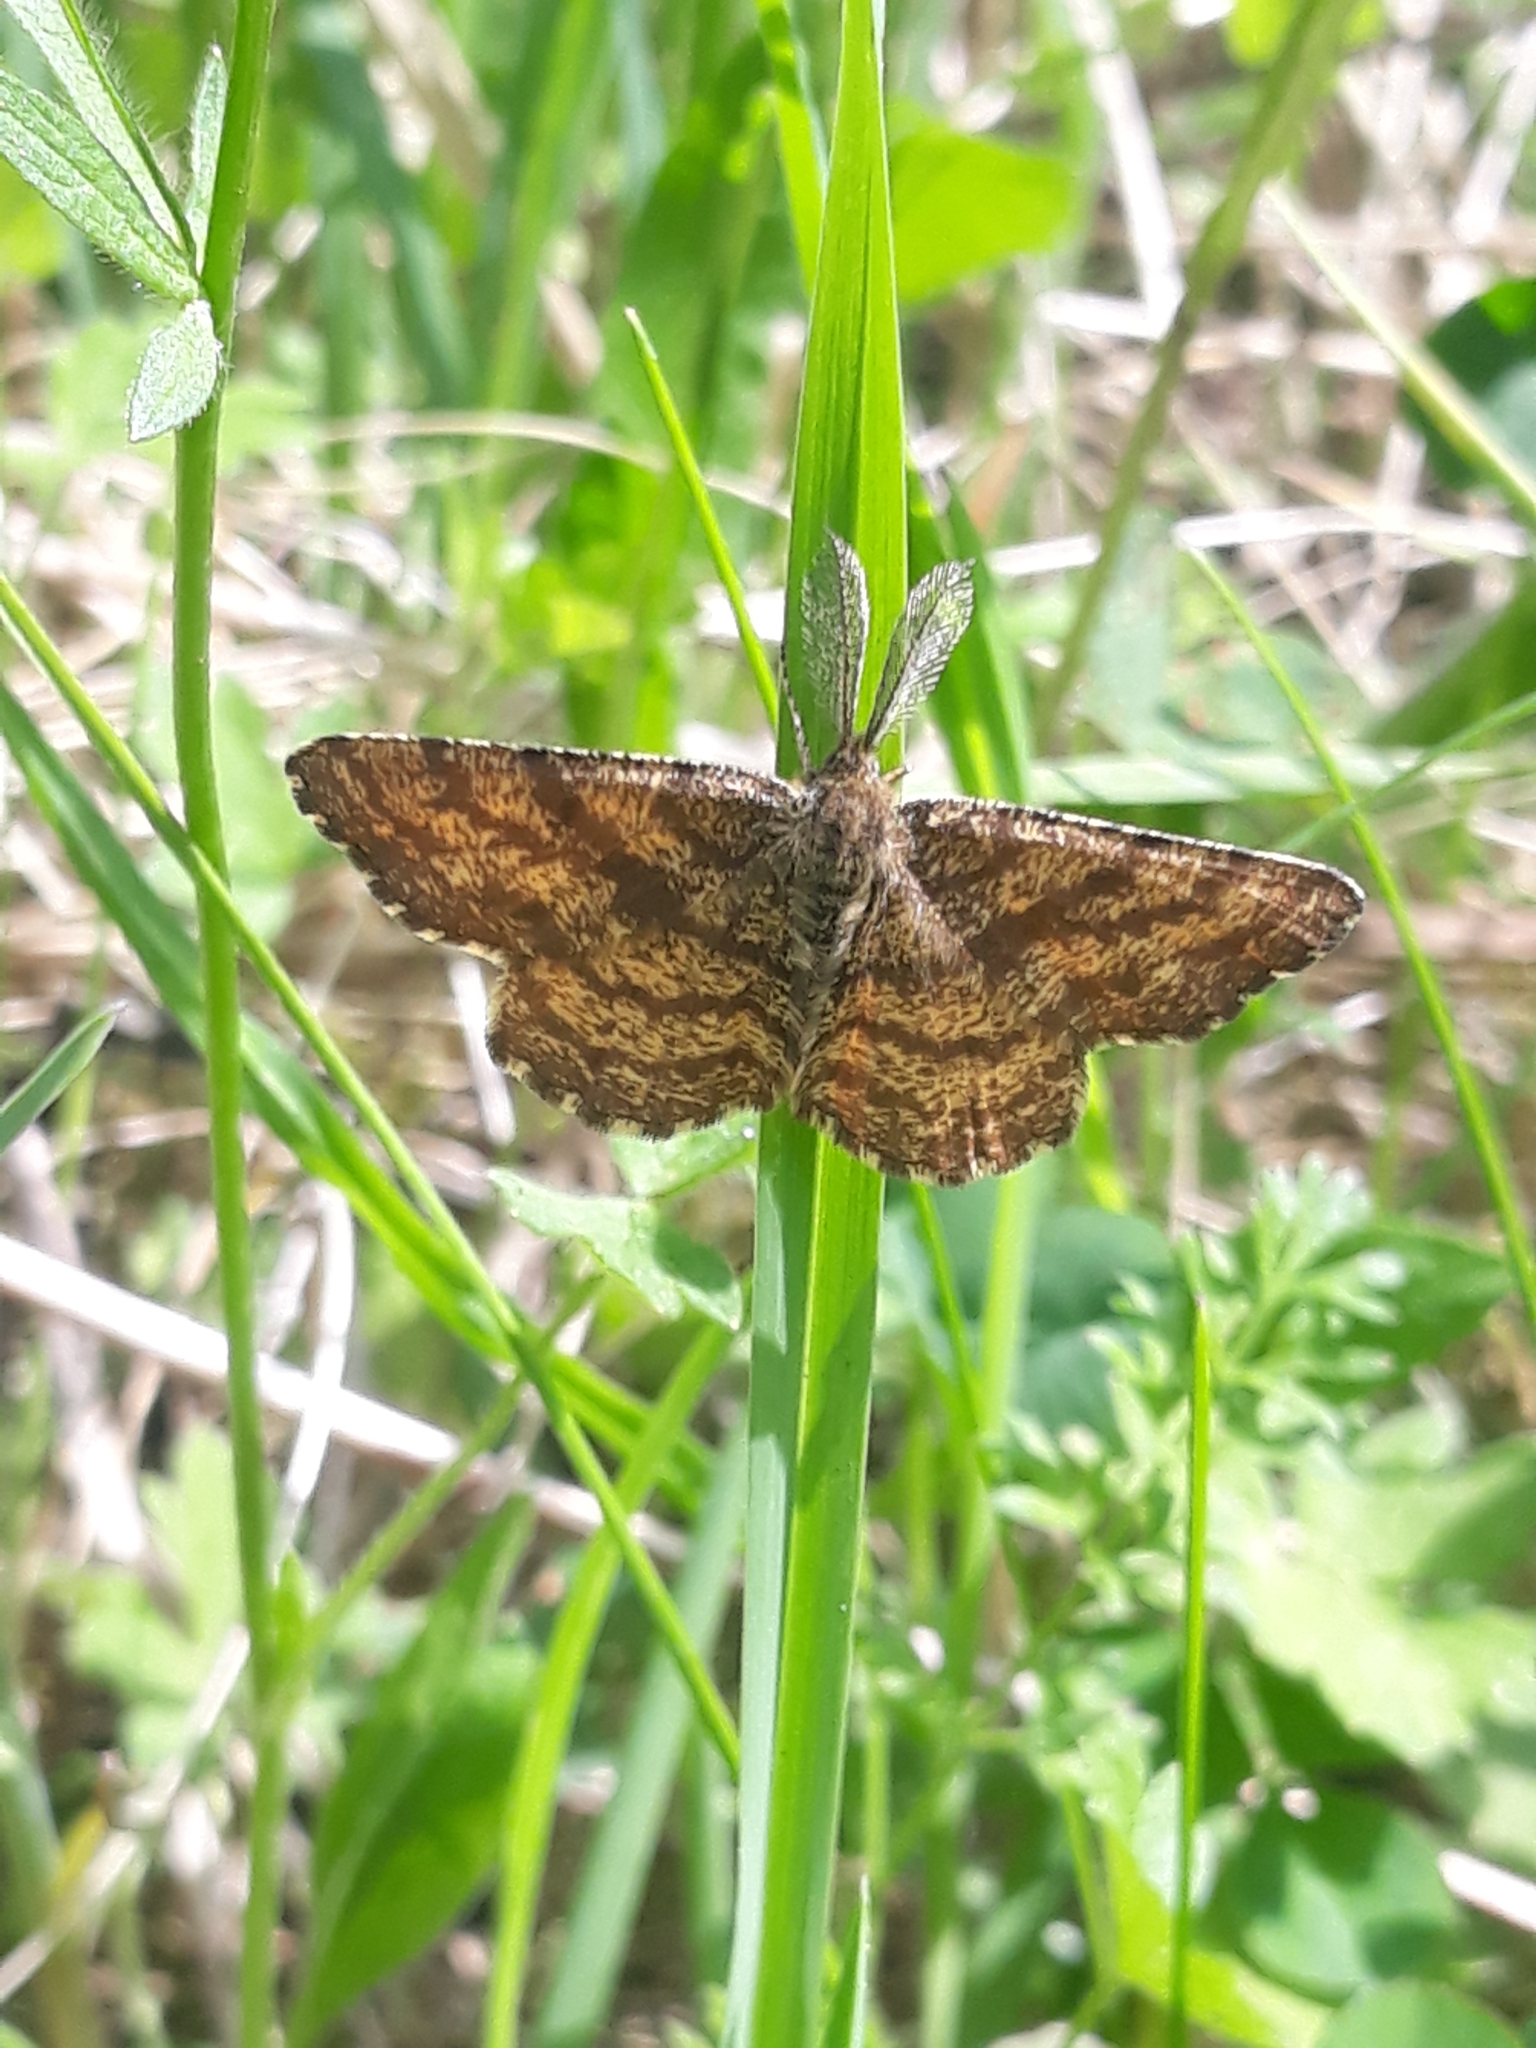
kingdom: Animalia
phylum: Arthropoda
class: Insecta
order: Lepidoptera
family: Geometridae
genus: Ematurga
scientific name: Ematurga atomaria
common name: Common heath
